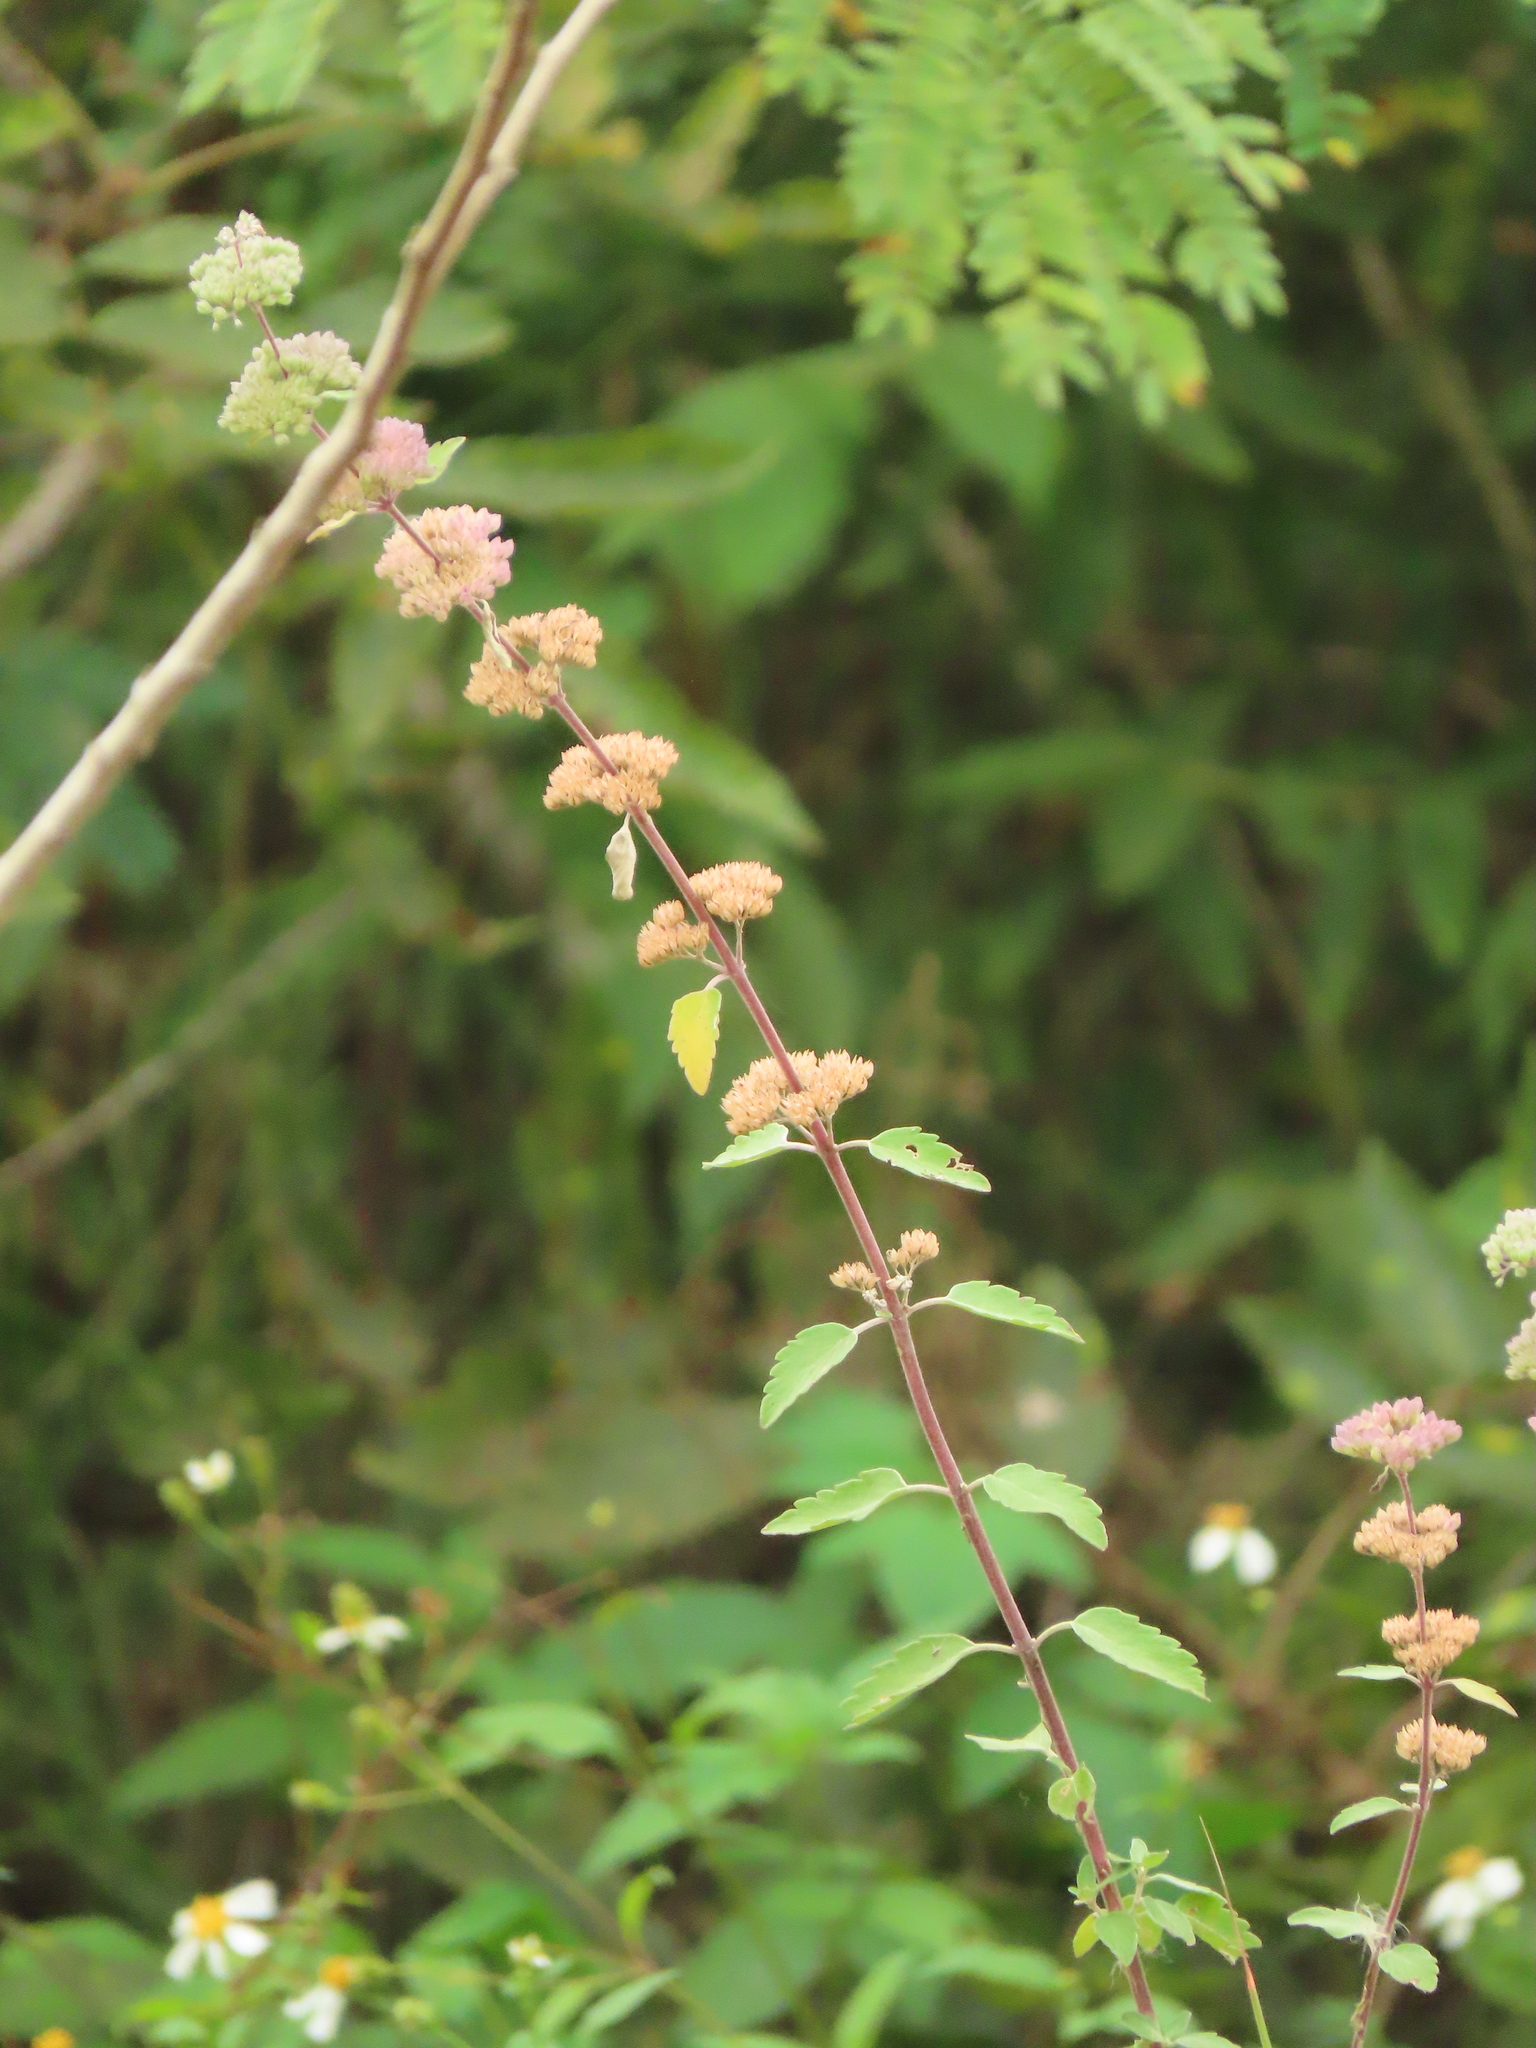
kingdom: Plantae
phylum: Tracheophyta
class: Magnoliopsida
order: Lamiales
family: Lamiaceae
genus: Caryopteris
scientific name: Caryopteris incana
